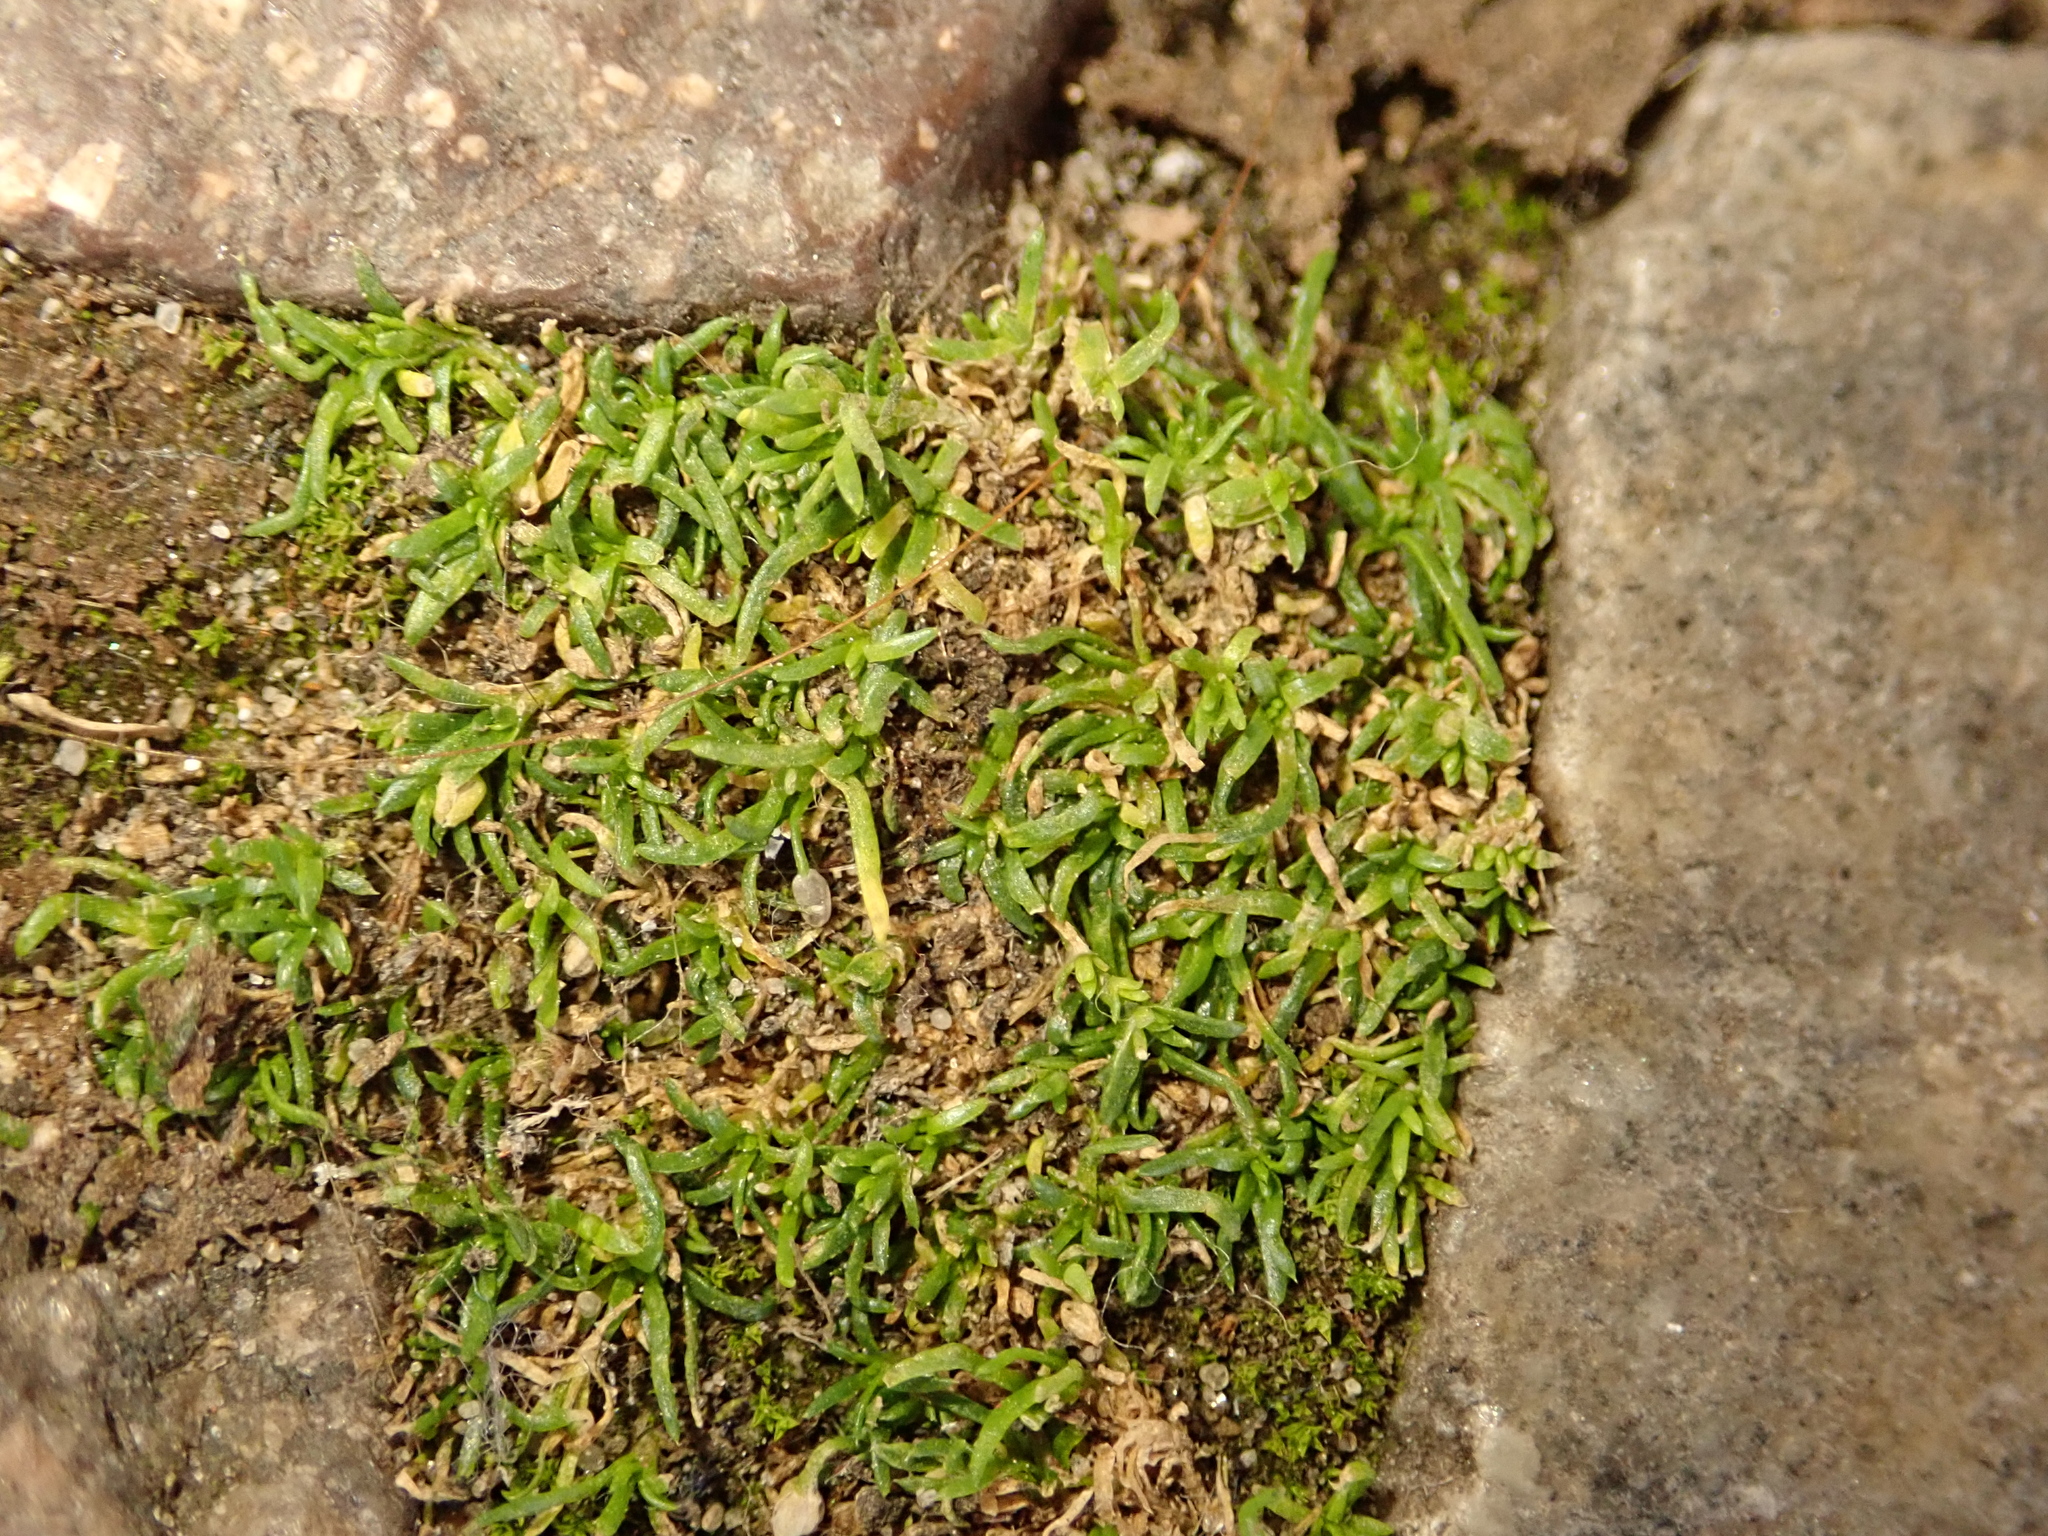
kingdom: Plantae
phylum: Tracheophyta
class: Magnoliopsida
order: Caryophyllales
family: Caryophyllaceae
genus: Sagina
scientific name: Sagina procumbens
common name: Procumbent pearlwort
